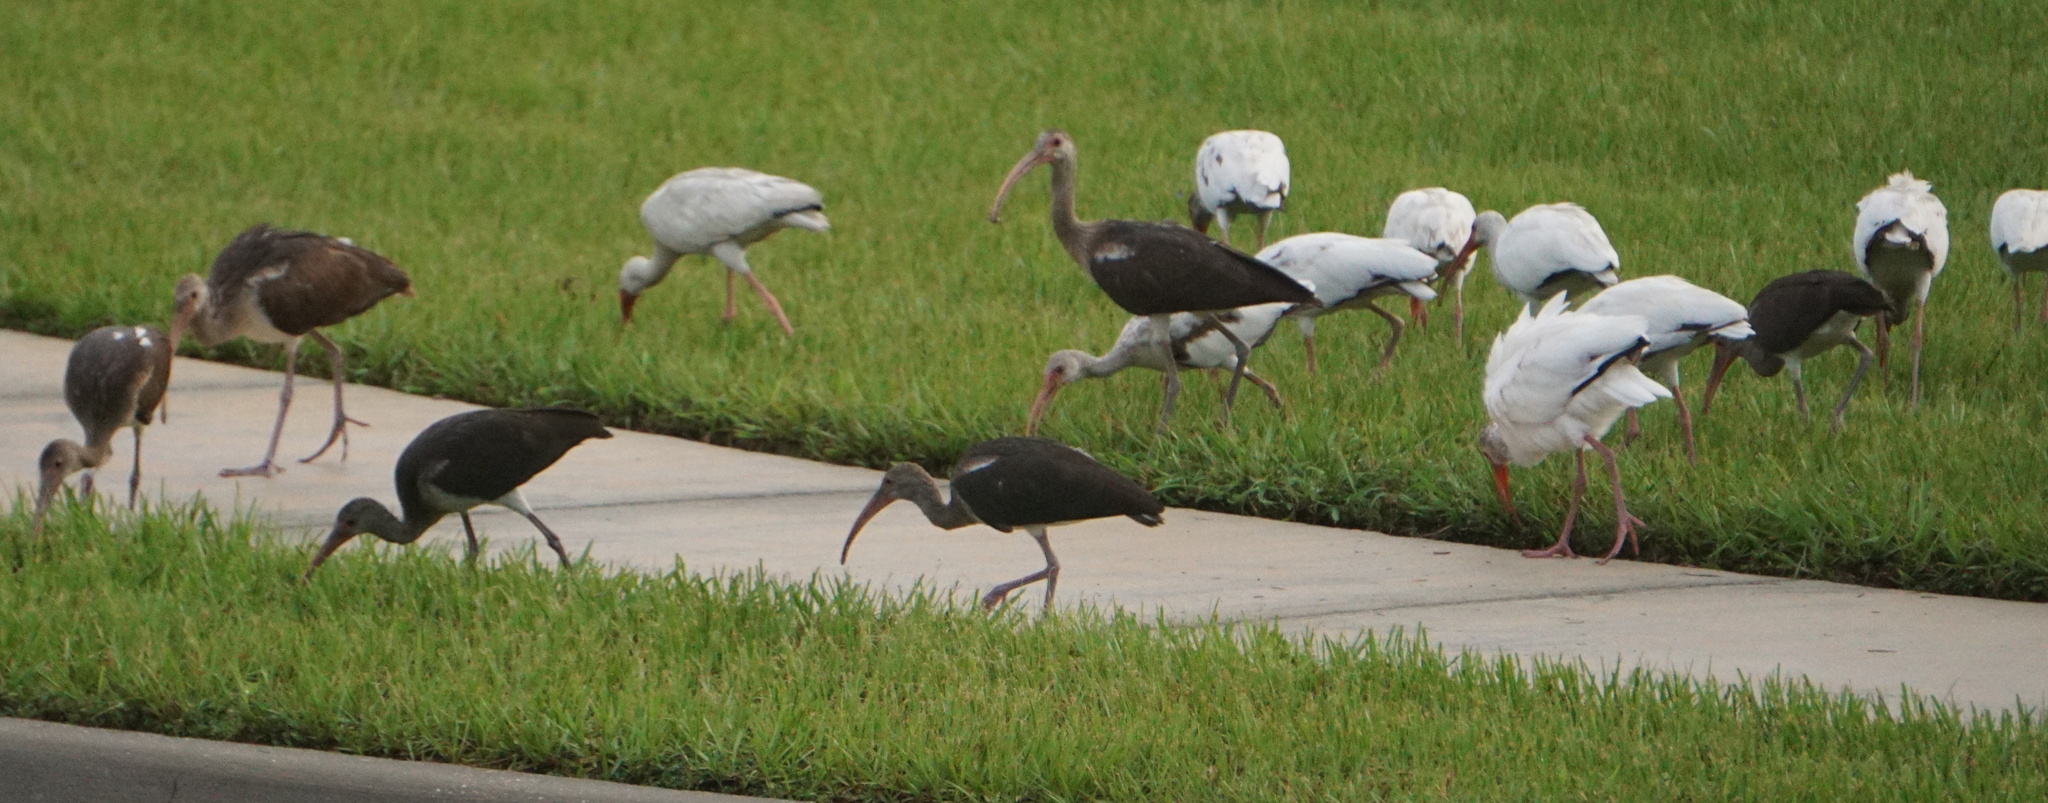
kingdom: Animalia
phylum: Chordata
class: Aves
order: Pelecaniformes
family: Threskiornithidae
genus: Eudocimus
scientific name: Eudocimus albus
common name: White ibis
